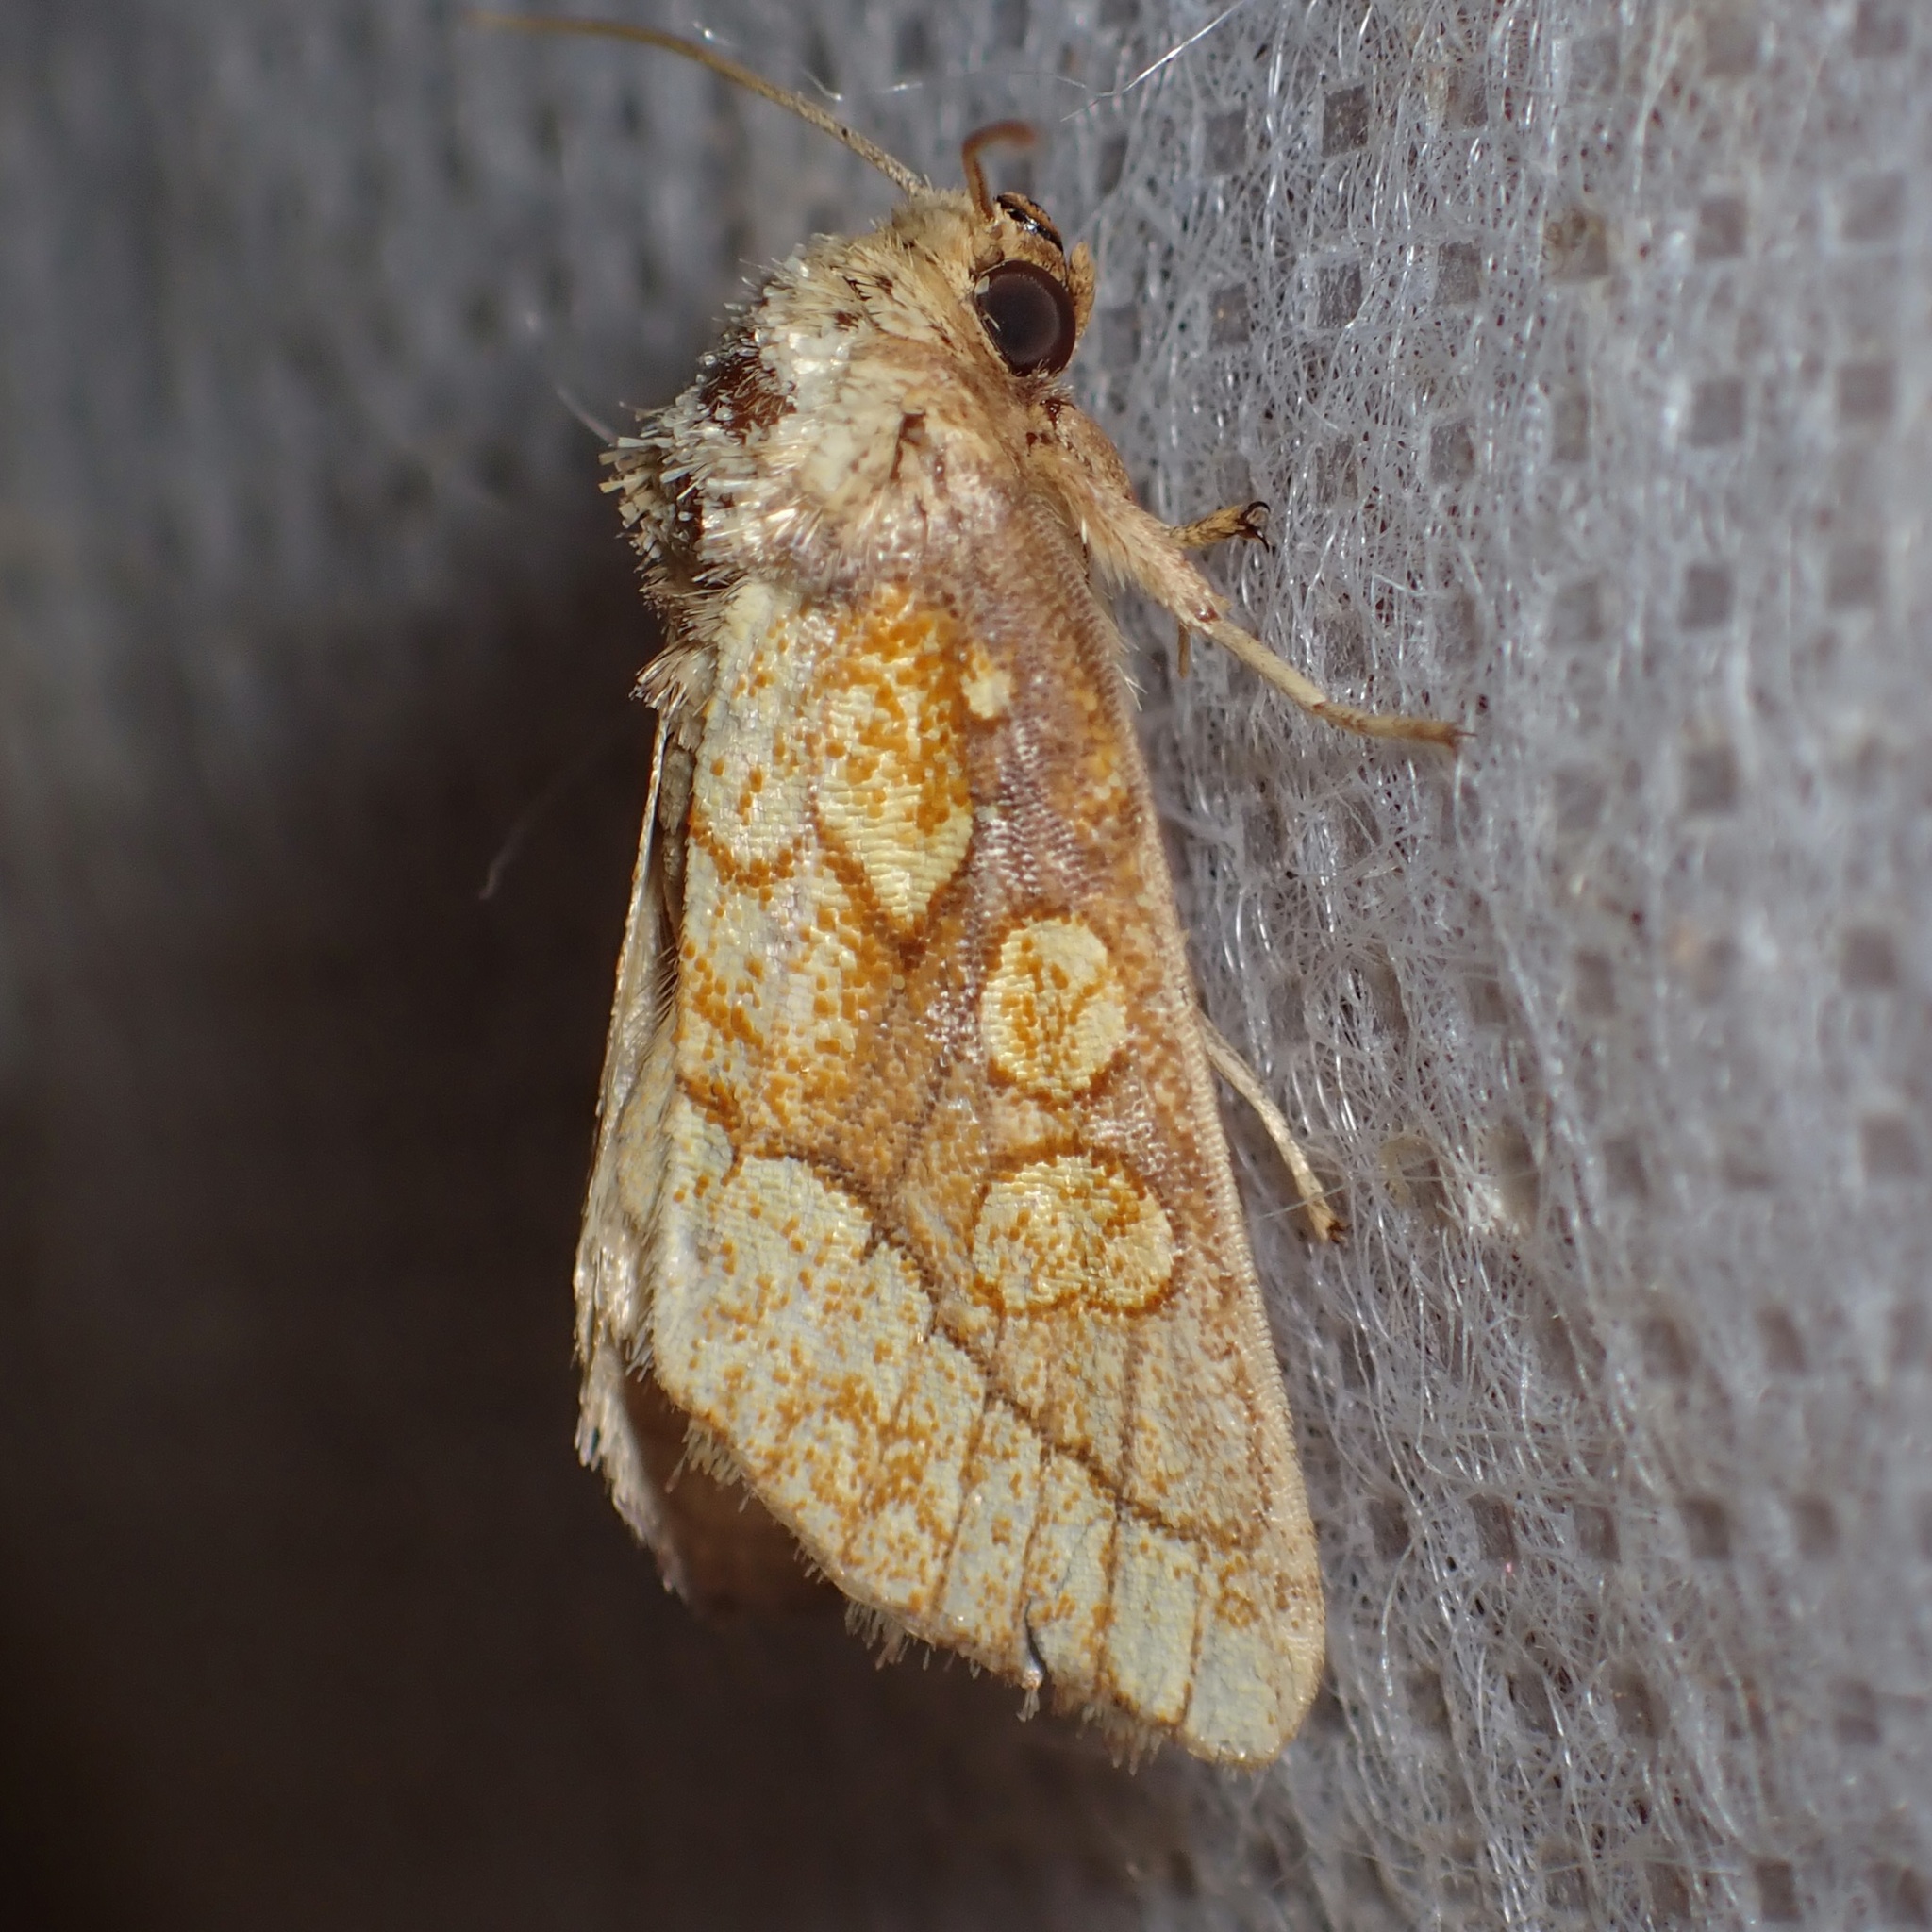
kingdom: Animalia
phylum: Arthropoda
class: Insecta
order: Lepidoptera
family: Noctuidae
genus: Nocloa
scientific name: Nocloa alcandra
